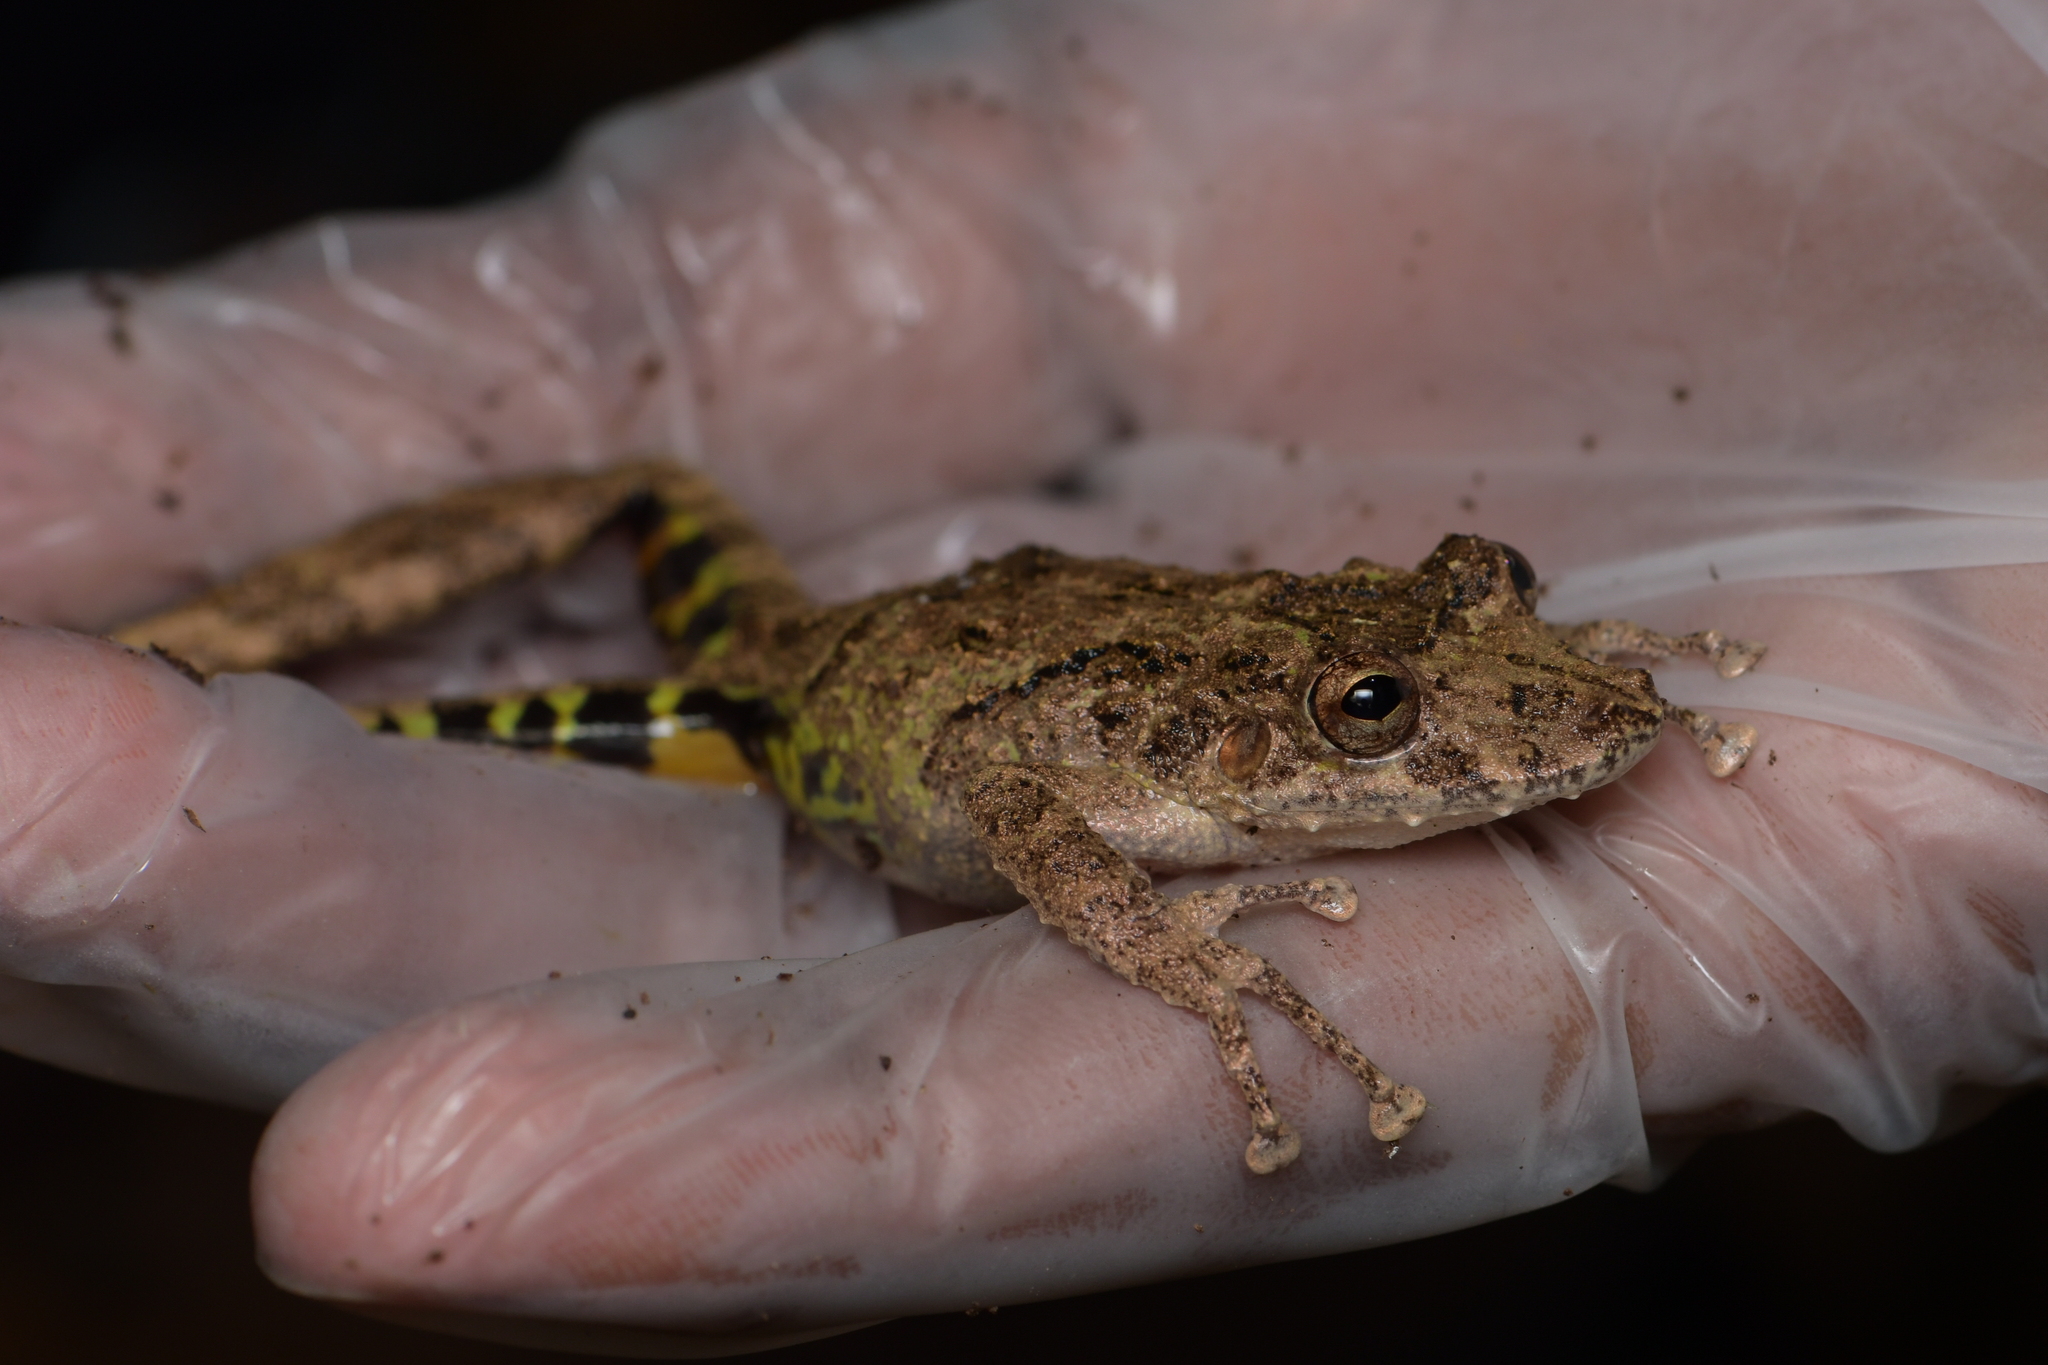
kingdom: Animalia
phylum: Chordata
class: Amphibia
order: Anura
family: Hylidae
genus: Scinax
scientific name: Scinax boulengeri
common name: Boulenger's snouted treefrog
